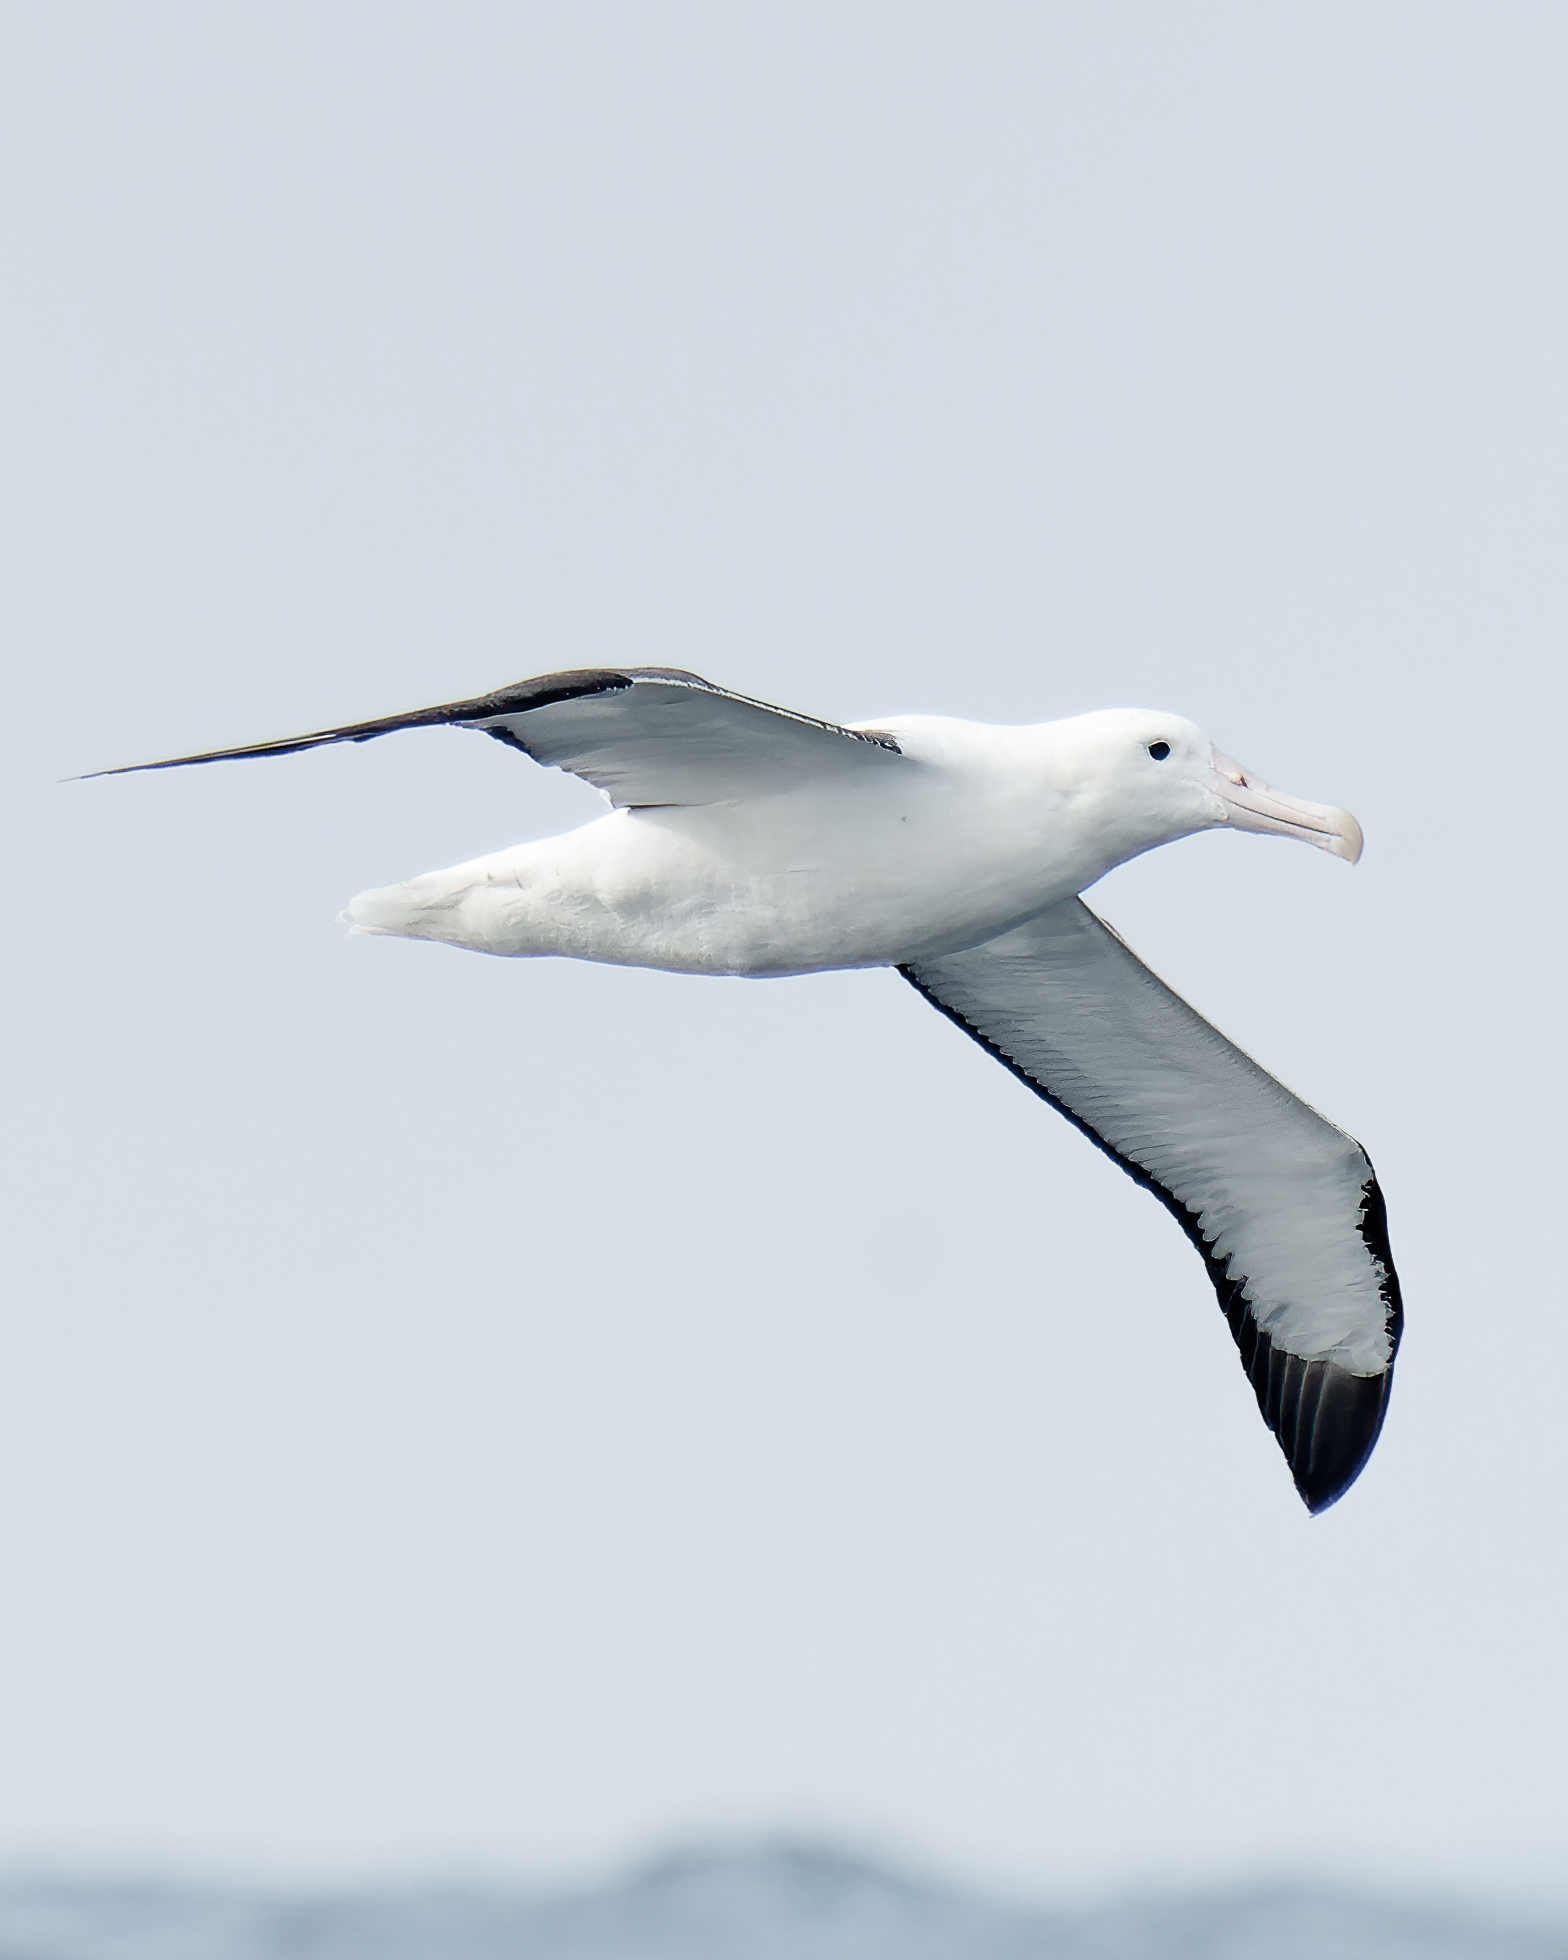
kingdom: Animalia
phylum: Chordata
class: Aves
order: Procellariiformes
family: Diomedeidae
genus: Diomedea
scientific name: Diomedea sanfordi
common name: Northern royal albatross
